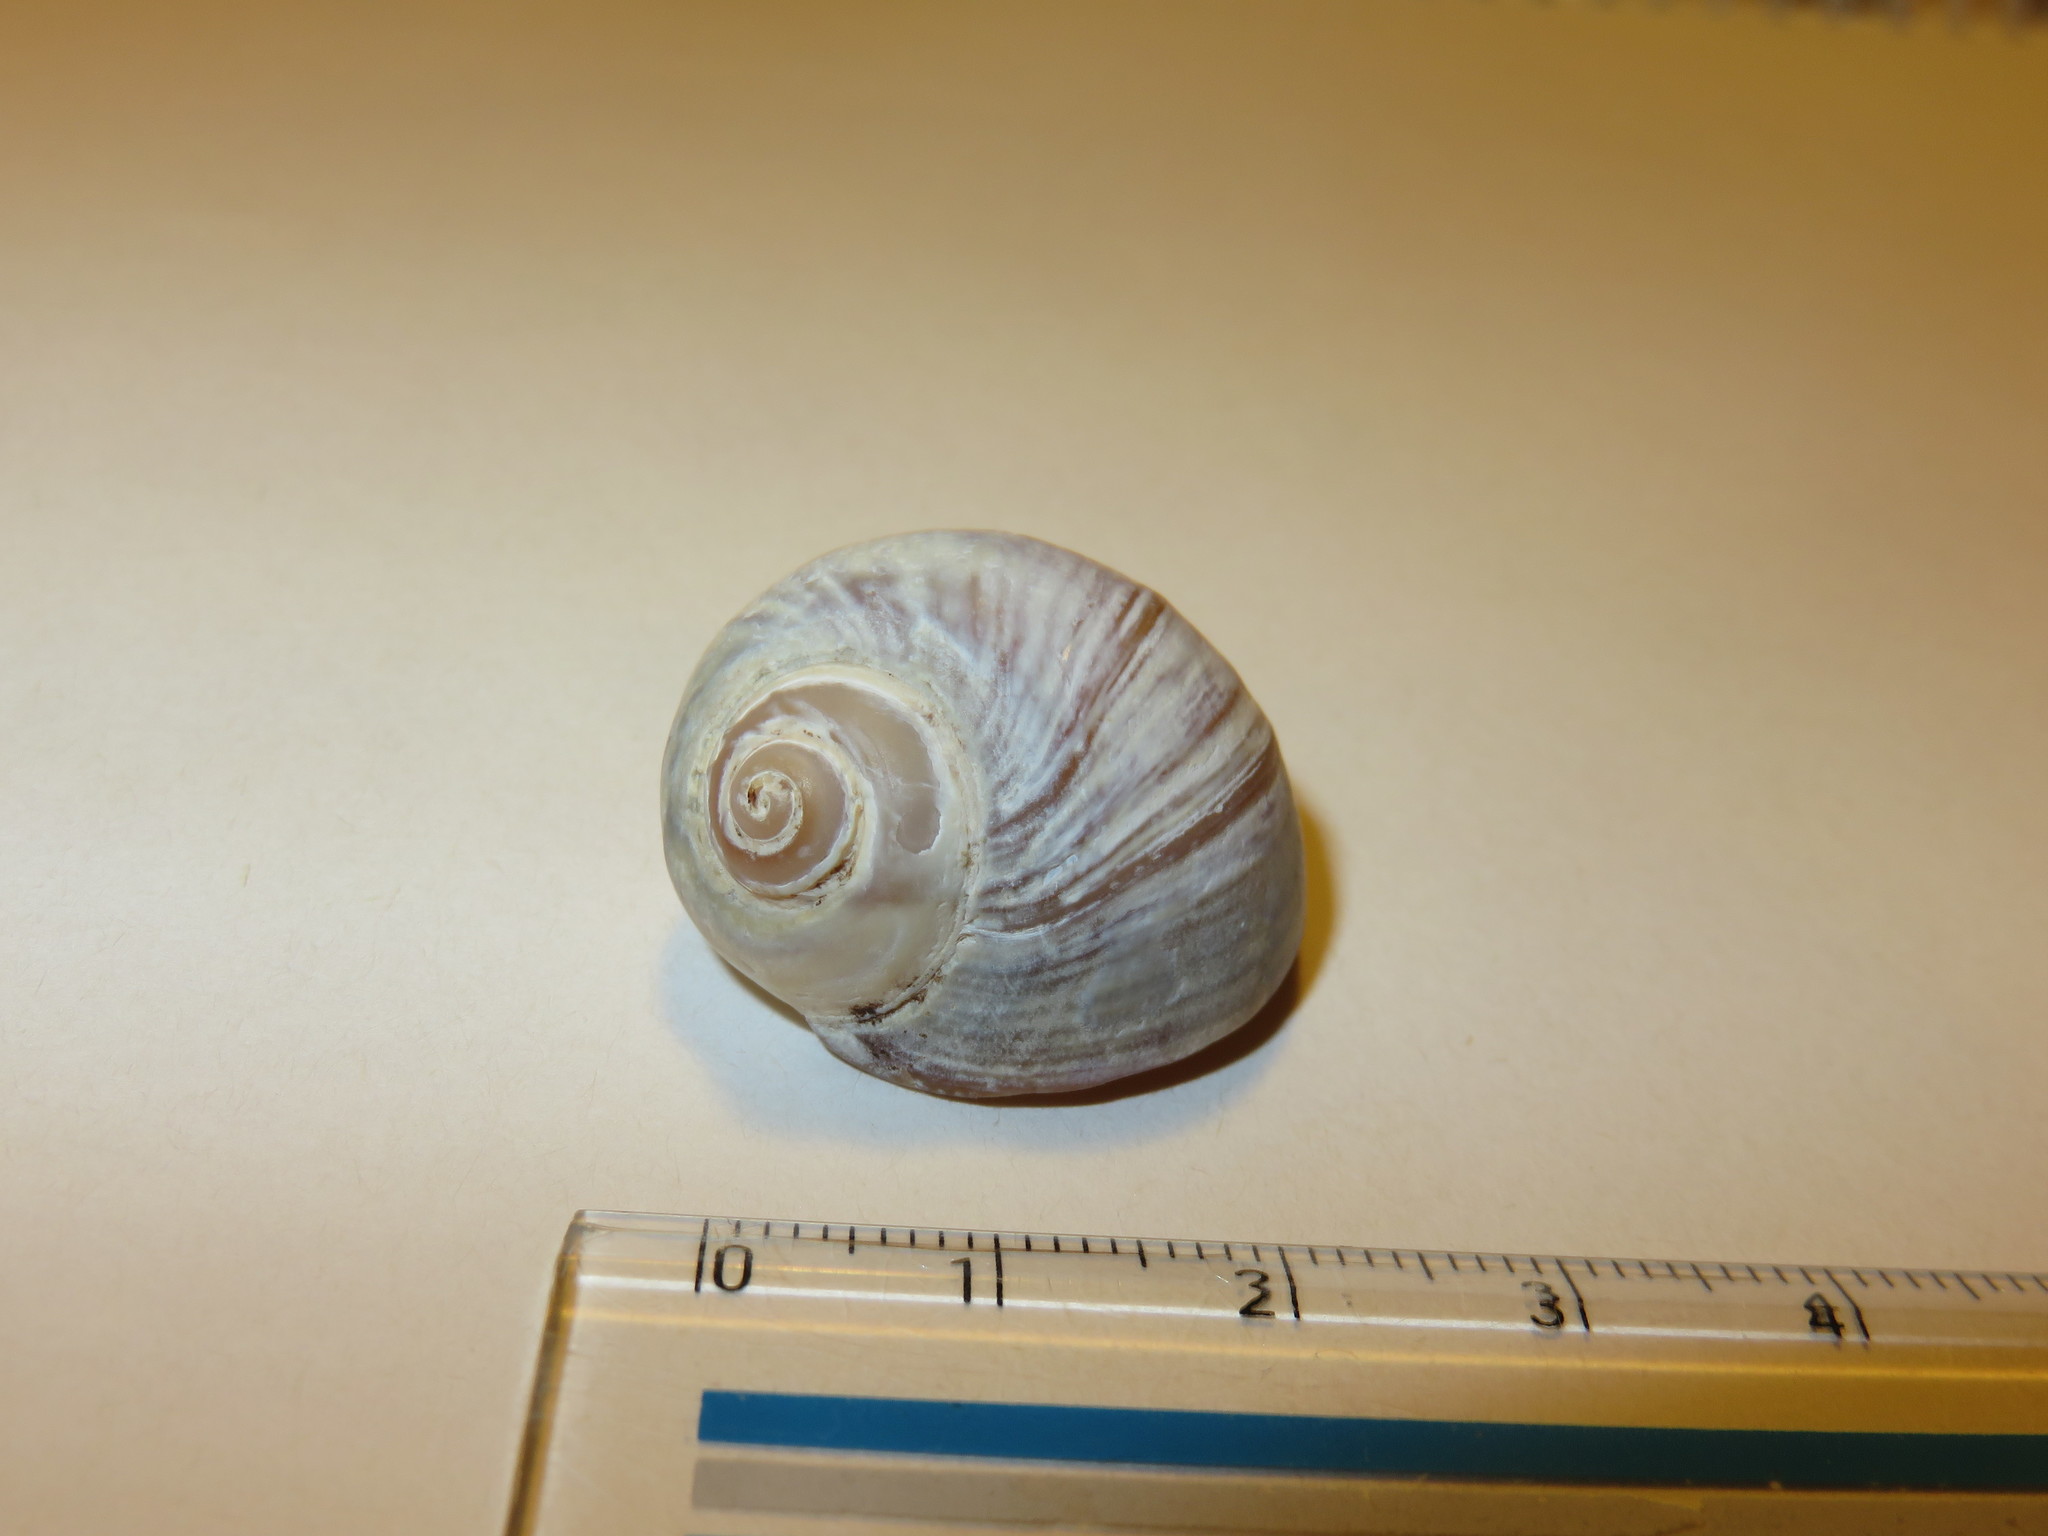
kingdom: Animalia
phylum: Mollusca
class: Gastropoda
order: Littorinimorpha
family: Naticidae
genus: Cryptonatica
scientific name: Cryptonatica janthostoma
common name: Kurile moon snail
